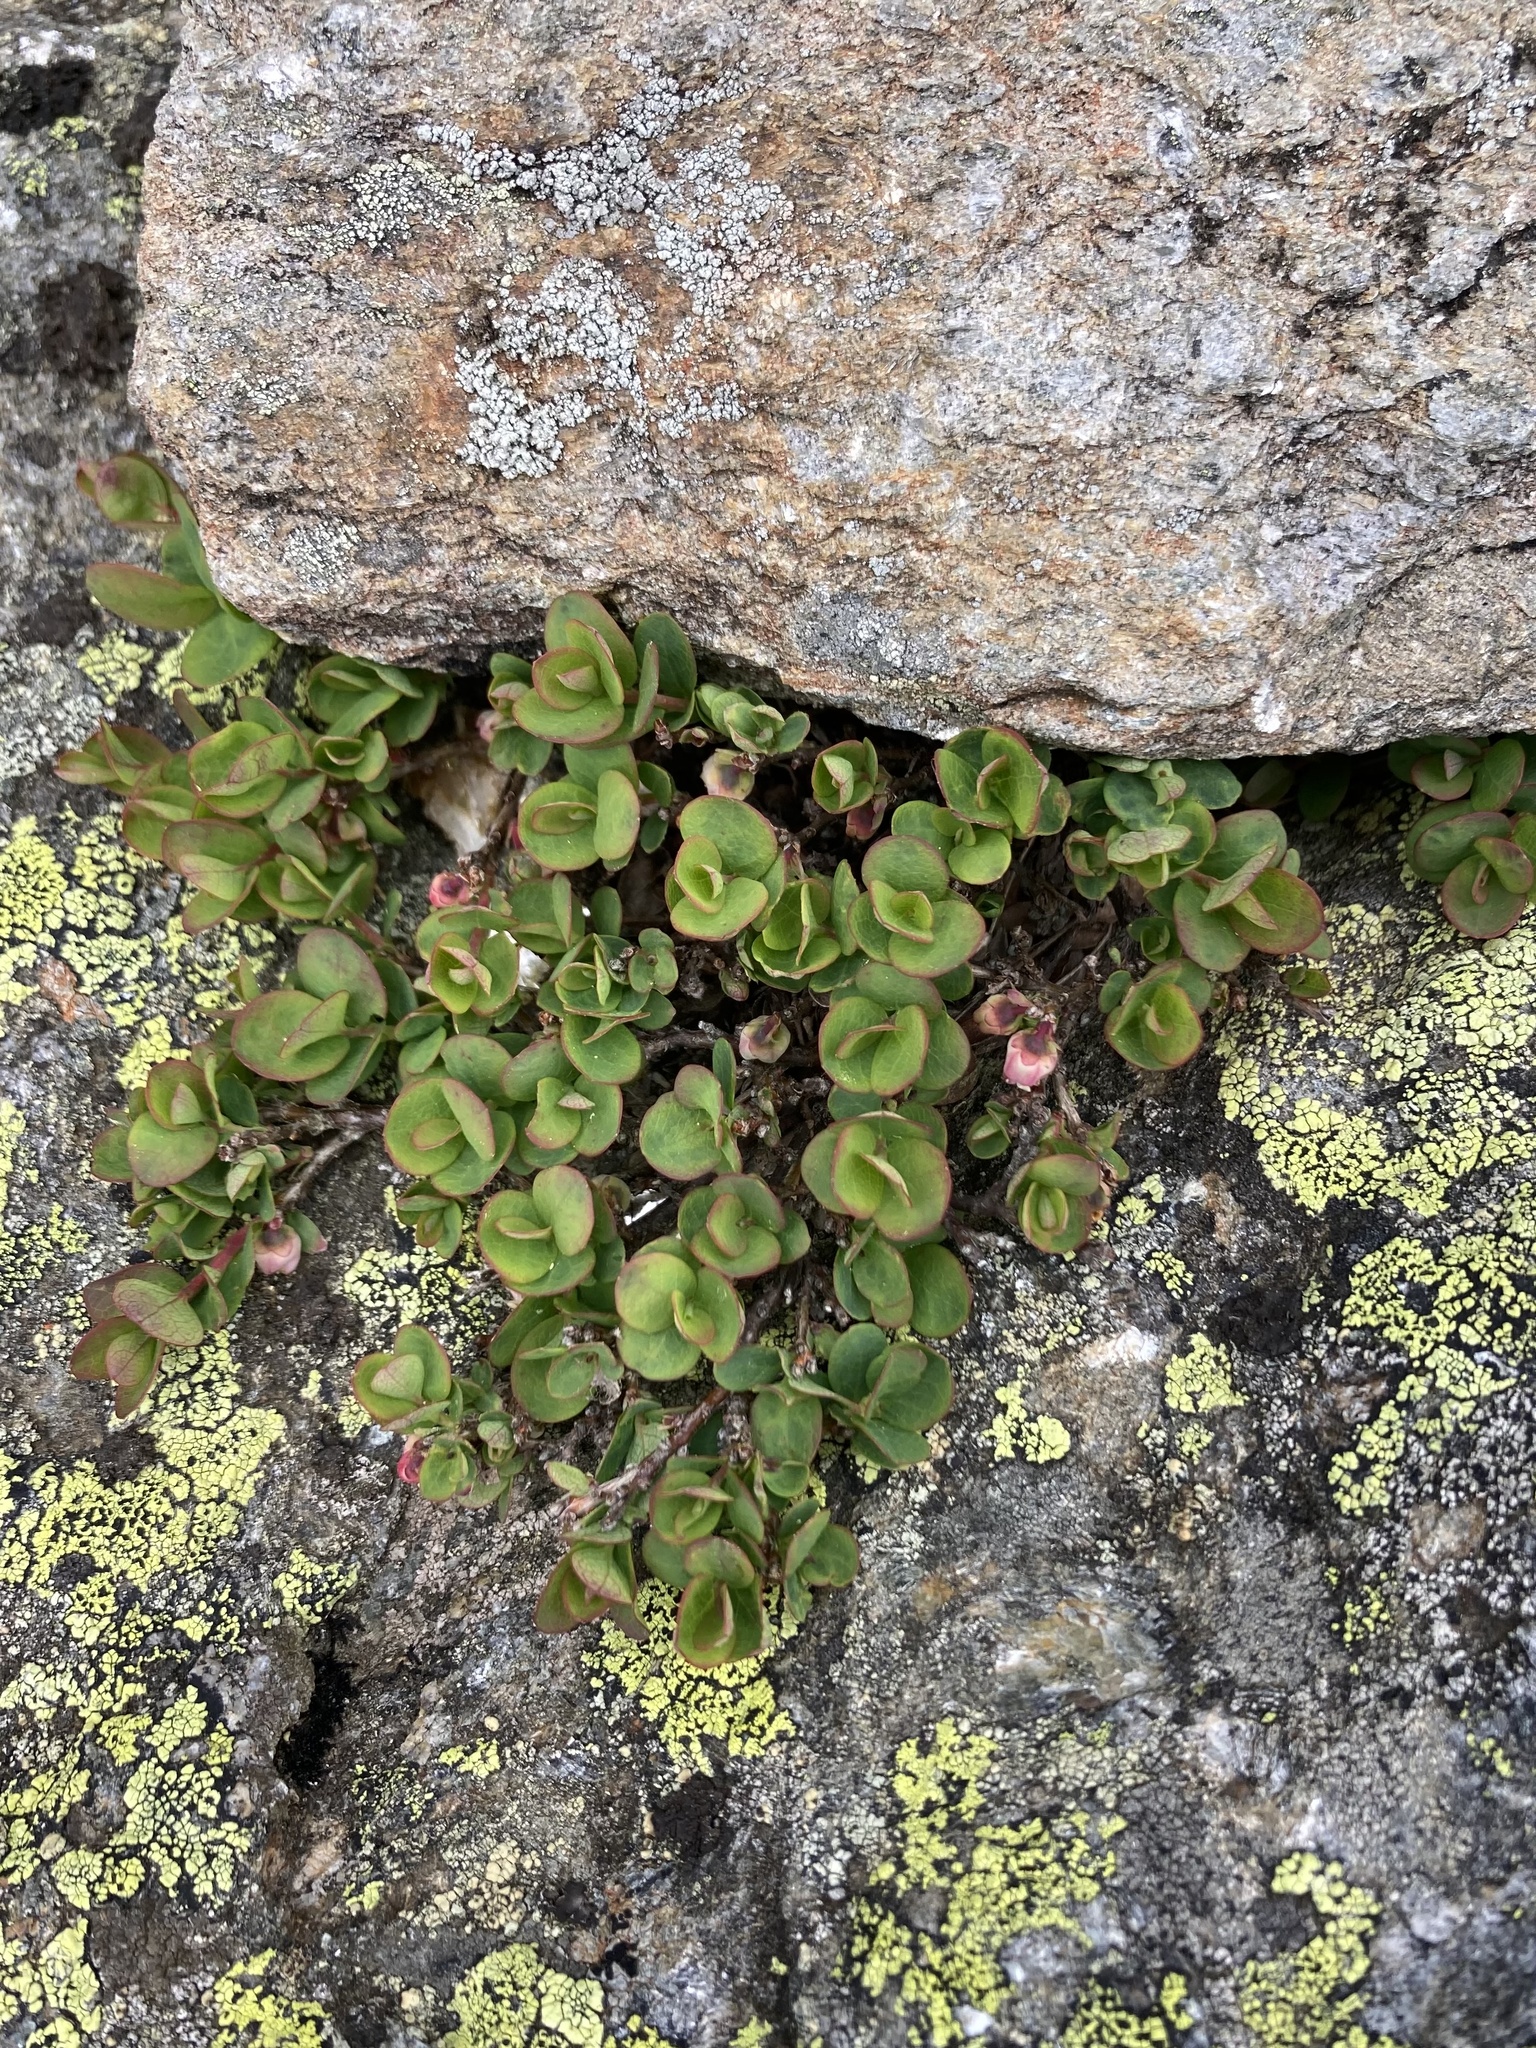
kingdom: Plantae
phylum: Tracheophyta
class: Magnoliopsida
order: Ericales
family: Ericaceae
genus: Vaccinium
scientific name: Vaccinium uliginosum
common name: Bog bilberry
